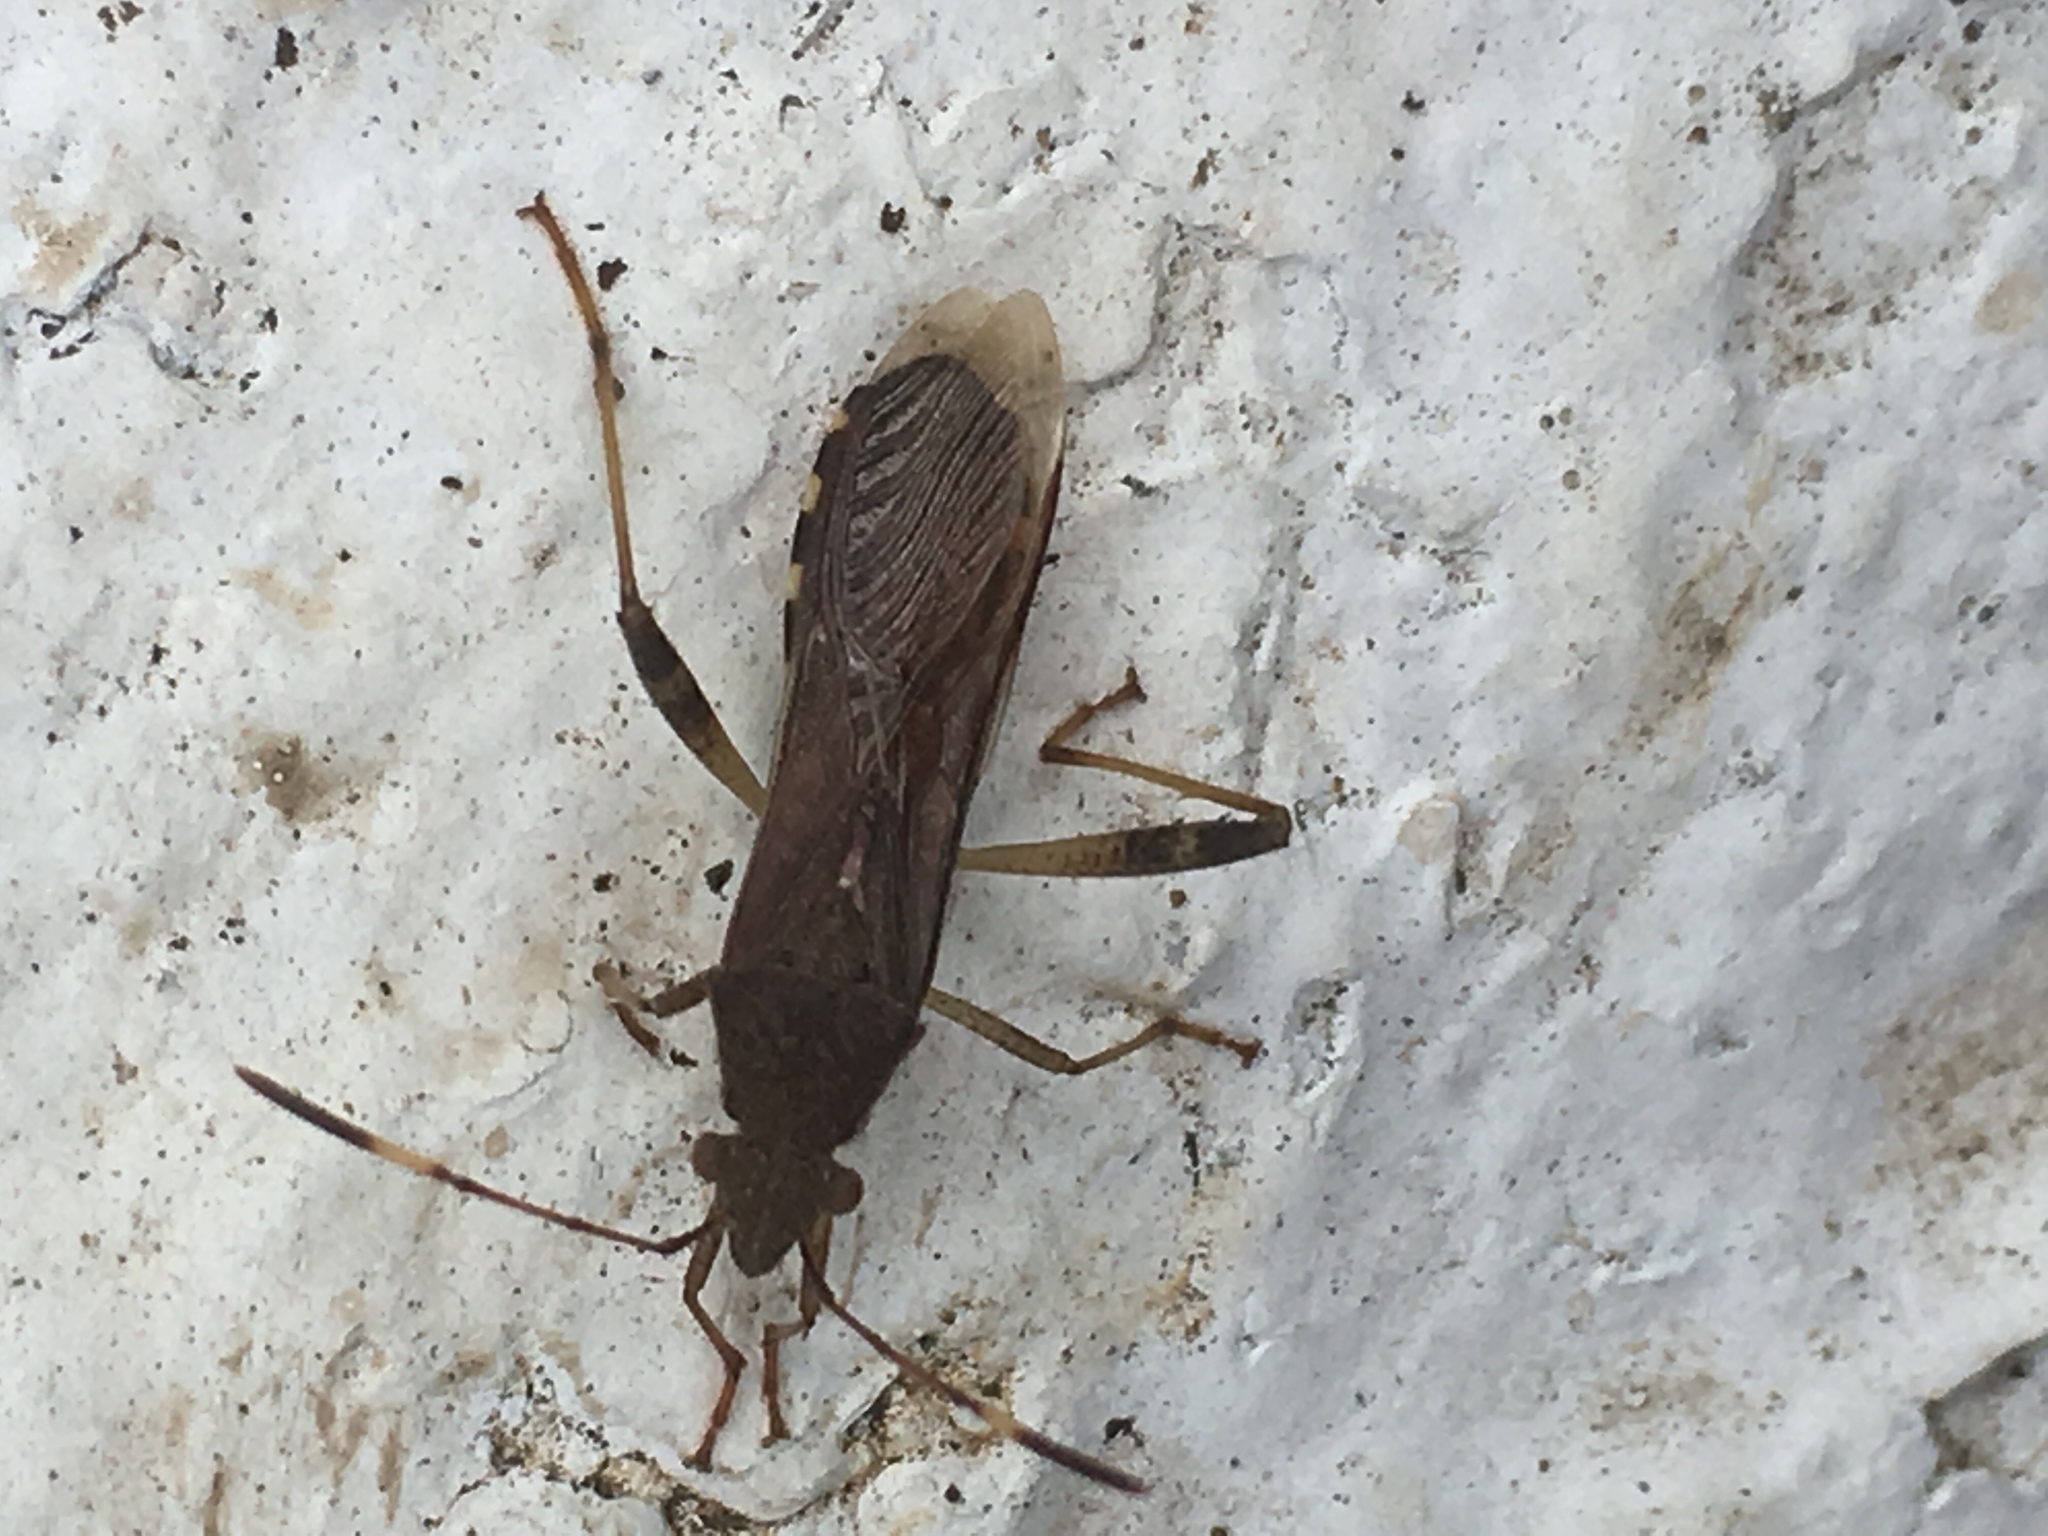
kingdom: Animalia
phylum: Arthropoda
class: Insecta
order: Hemiptera
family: Alydidae
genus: Burtinus
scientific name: Burtinus notatipennis
